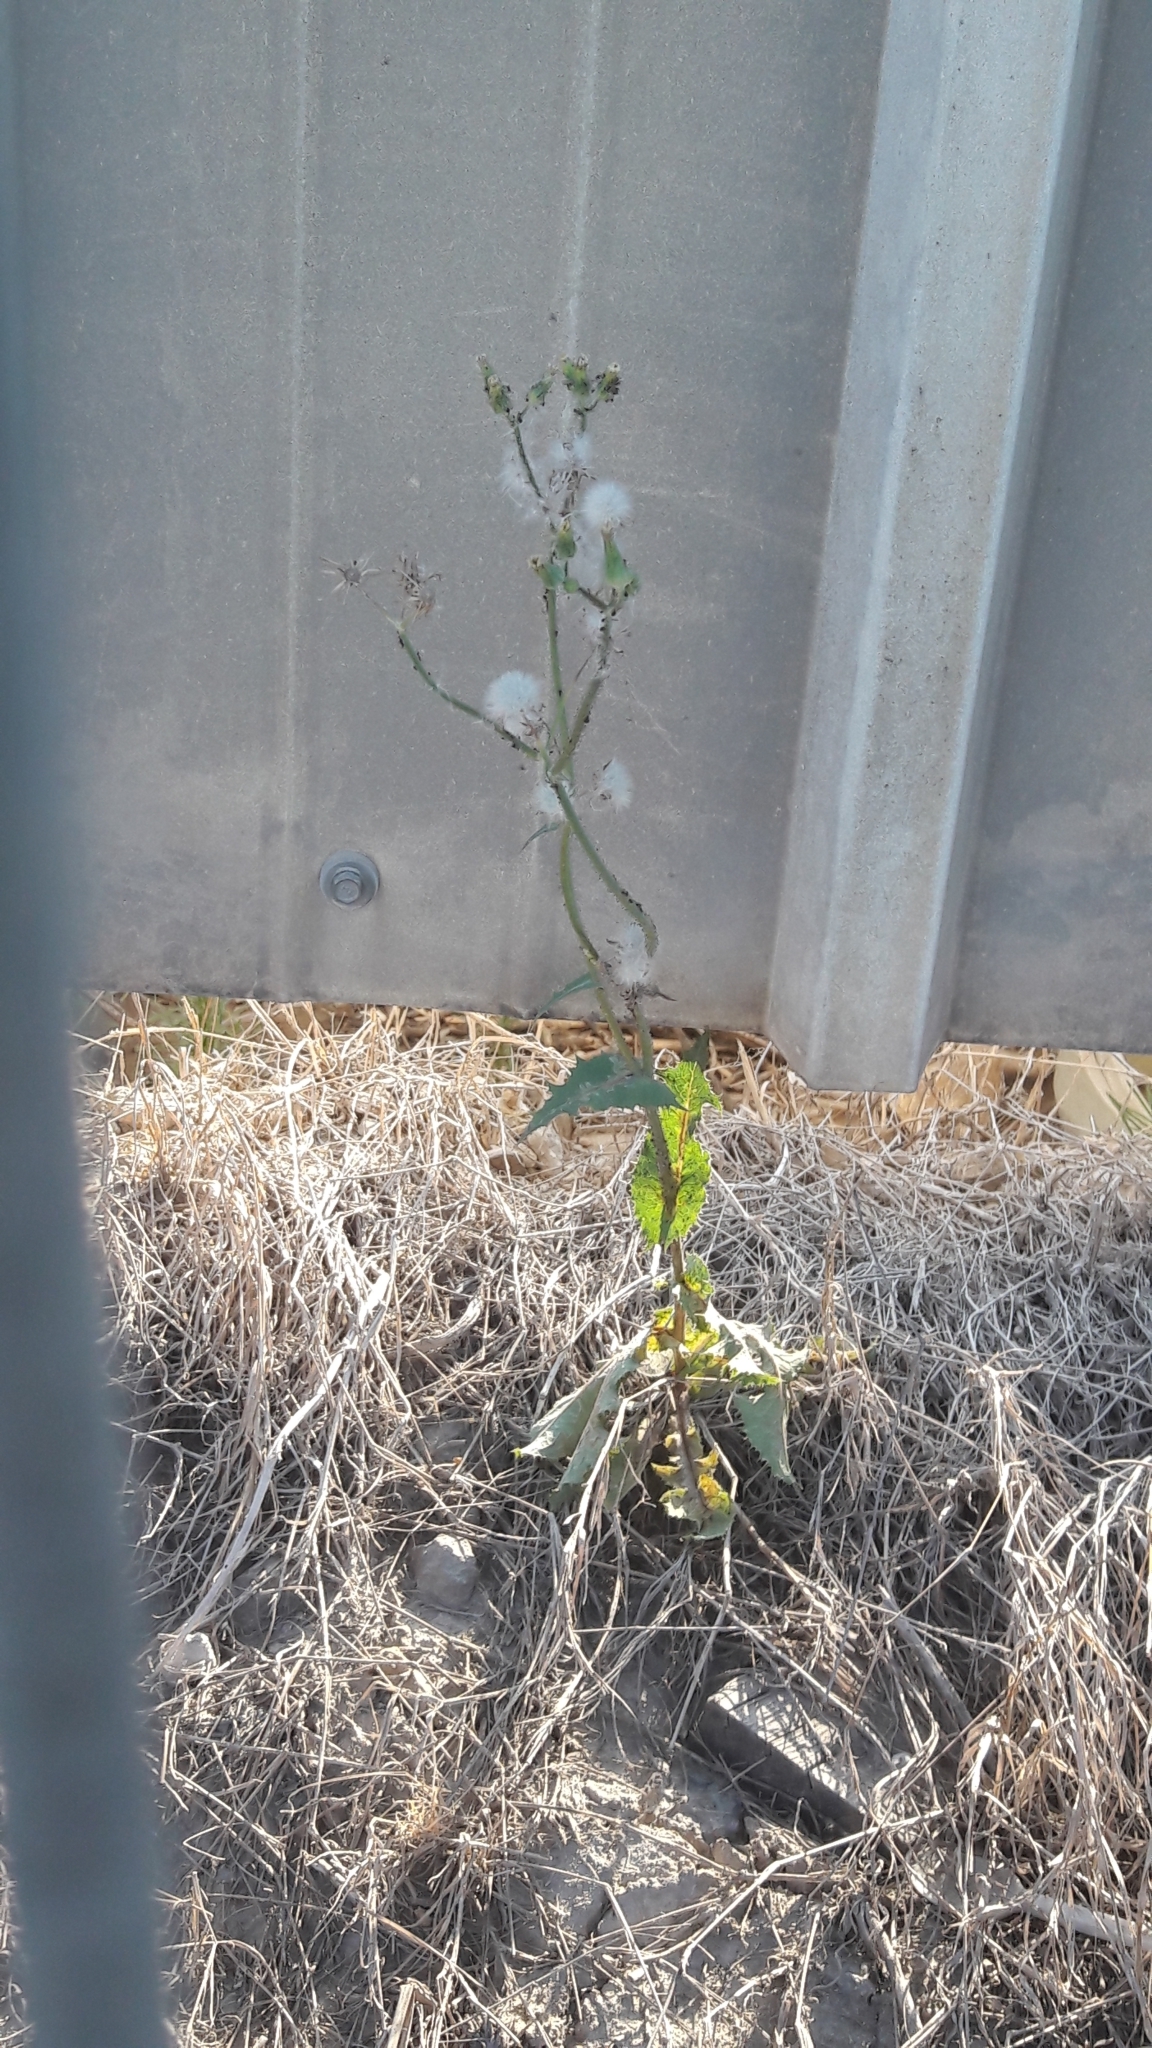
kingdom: Plantae
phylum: Tracheophyta
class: Magnoliopsida
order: Asterales
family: Asteraceae
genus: Sonchus
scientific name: Sonchus oleraceus
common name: Common sowthistle
